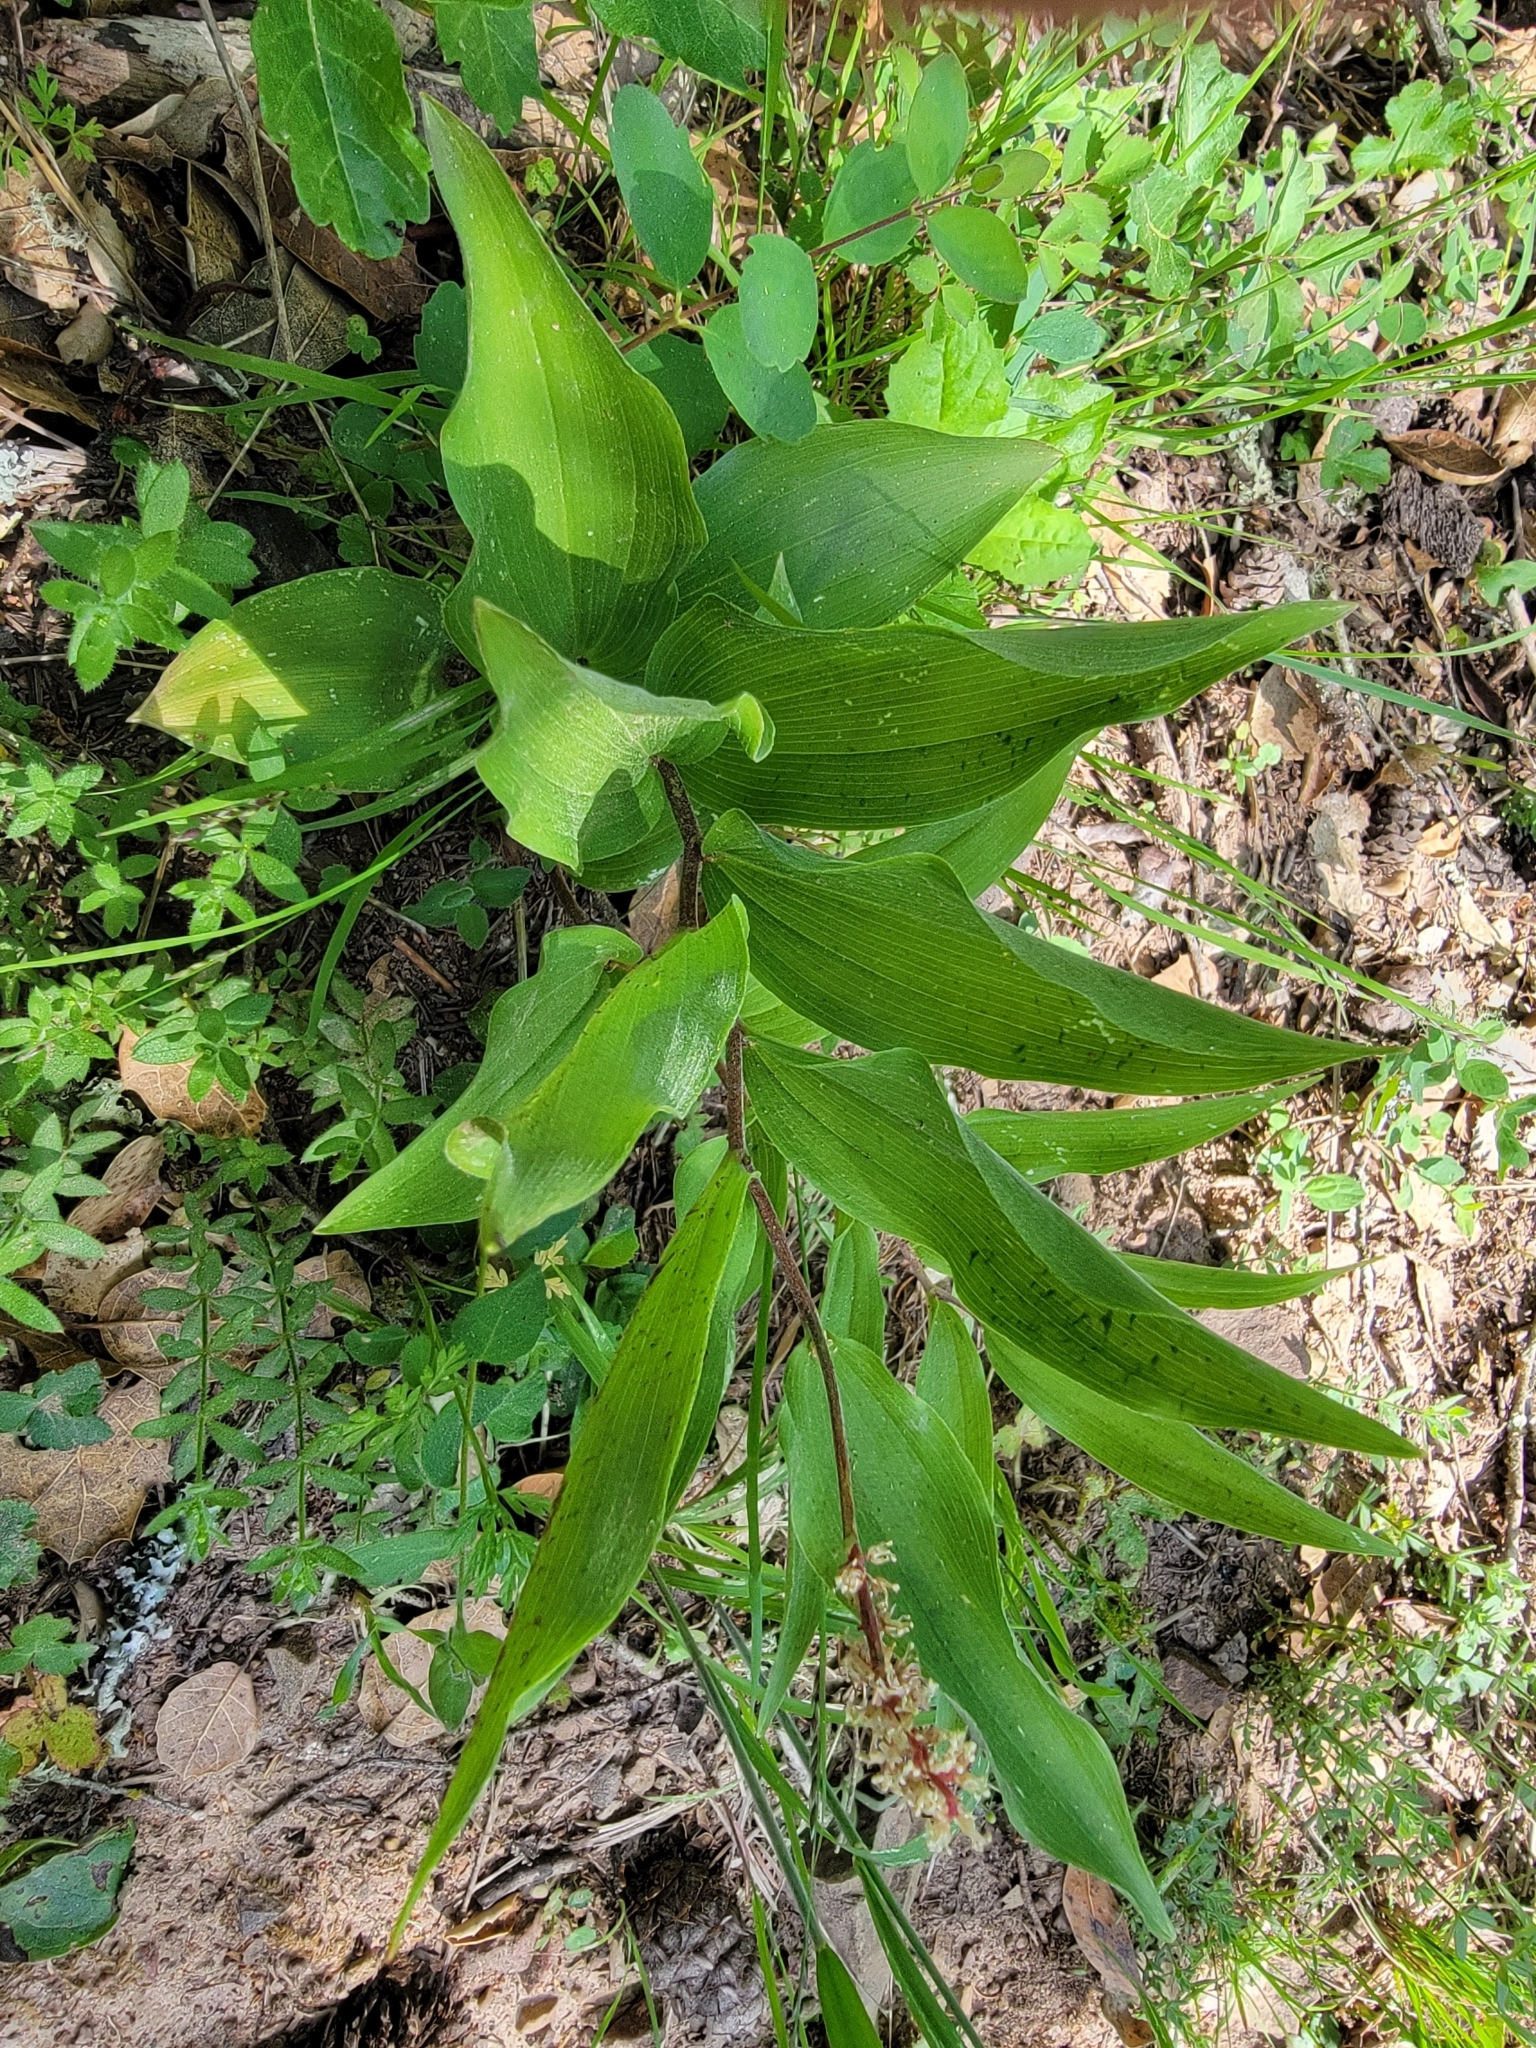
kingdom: Plantae
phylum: Tracheophyta
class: Liliopsida
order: Asparagales
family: Asparagaceae
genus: Maianthemum
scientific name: Maianthemum racemosum
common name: False spikenard
